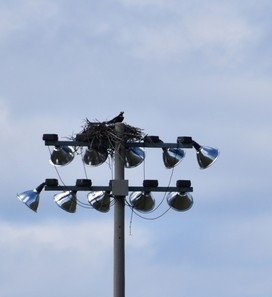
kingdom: Animalia
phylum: Chordata
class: Aves
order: Accipitriformes
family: Pandionidae
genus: Pandion
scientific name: Pandion haliaetus
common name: Osprey
